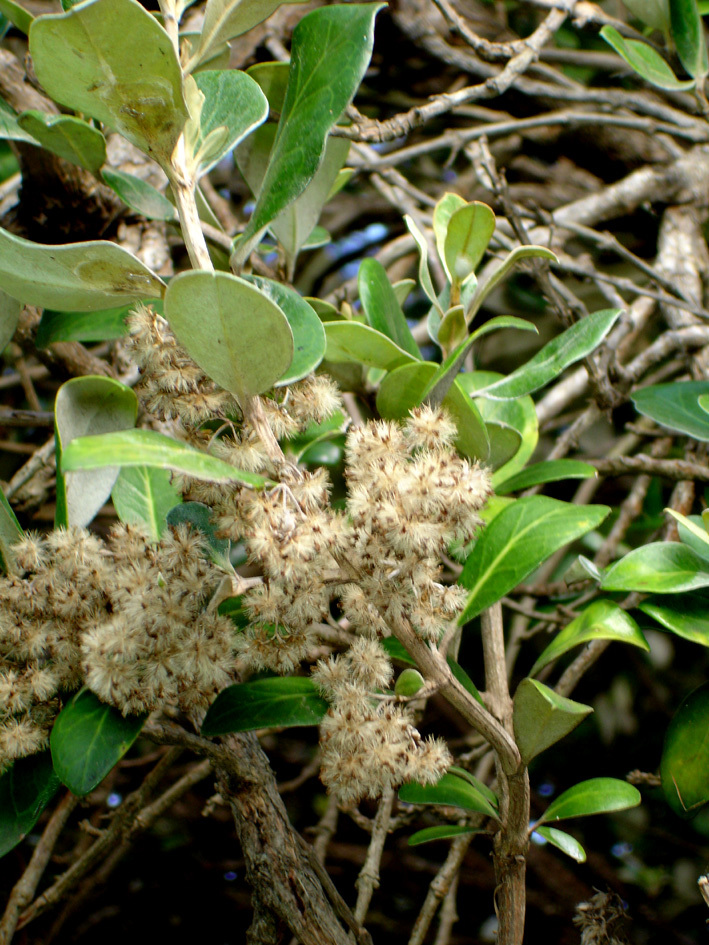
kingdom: Plantae
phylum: Tracheophyta
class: Magnoliopsida
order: Asterales
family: Asteraceae
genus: Olearia
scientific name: Olearia traversiorum
